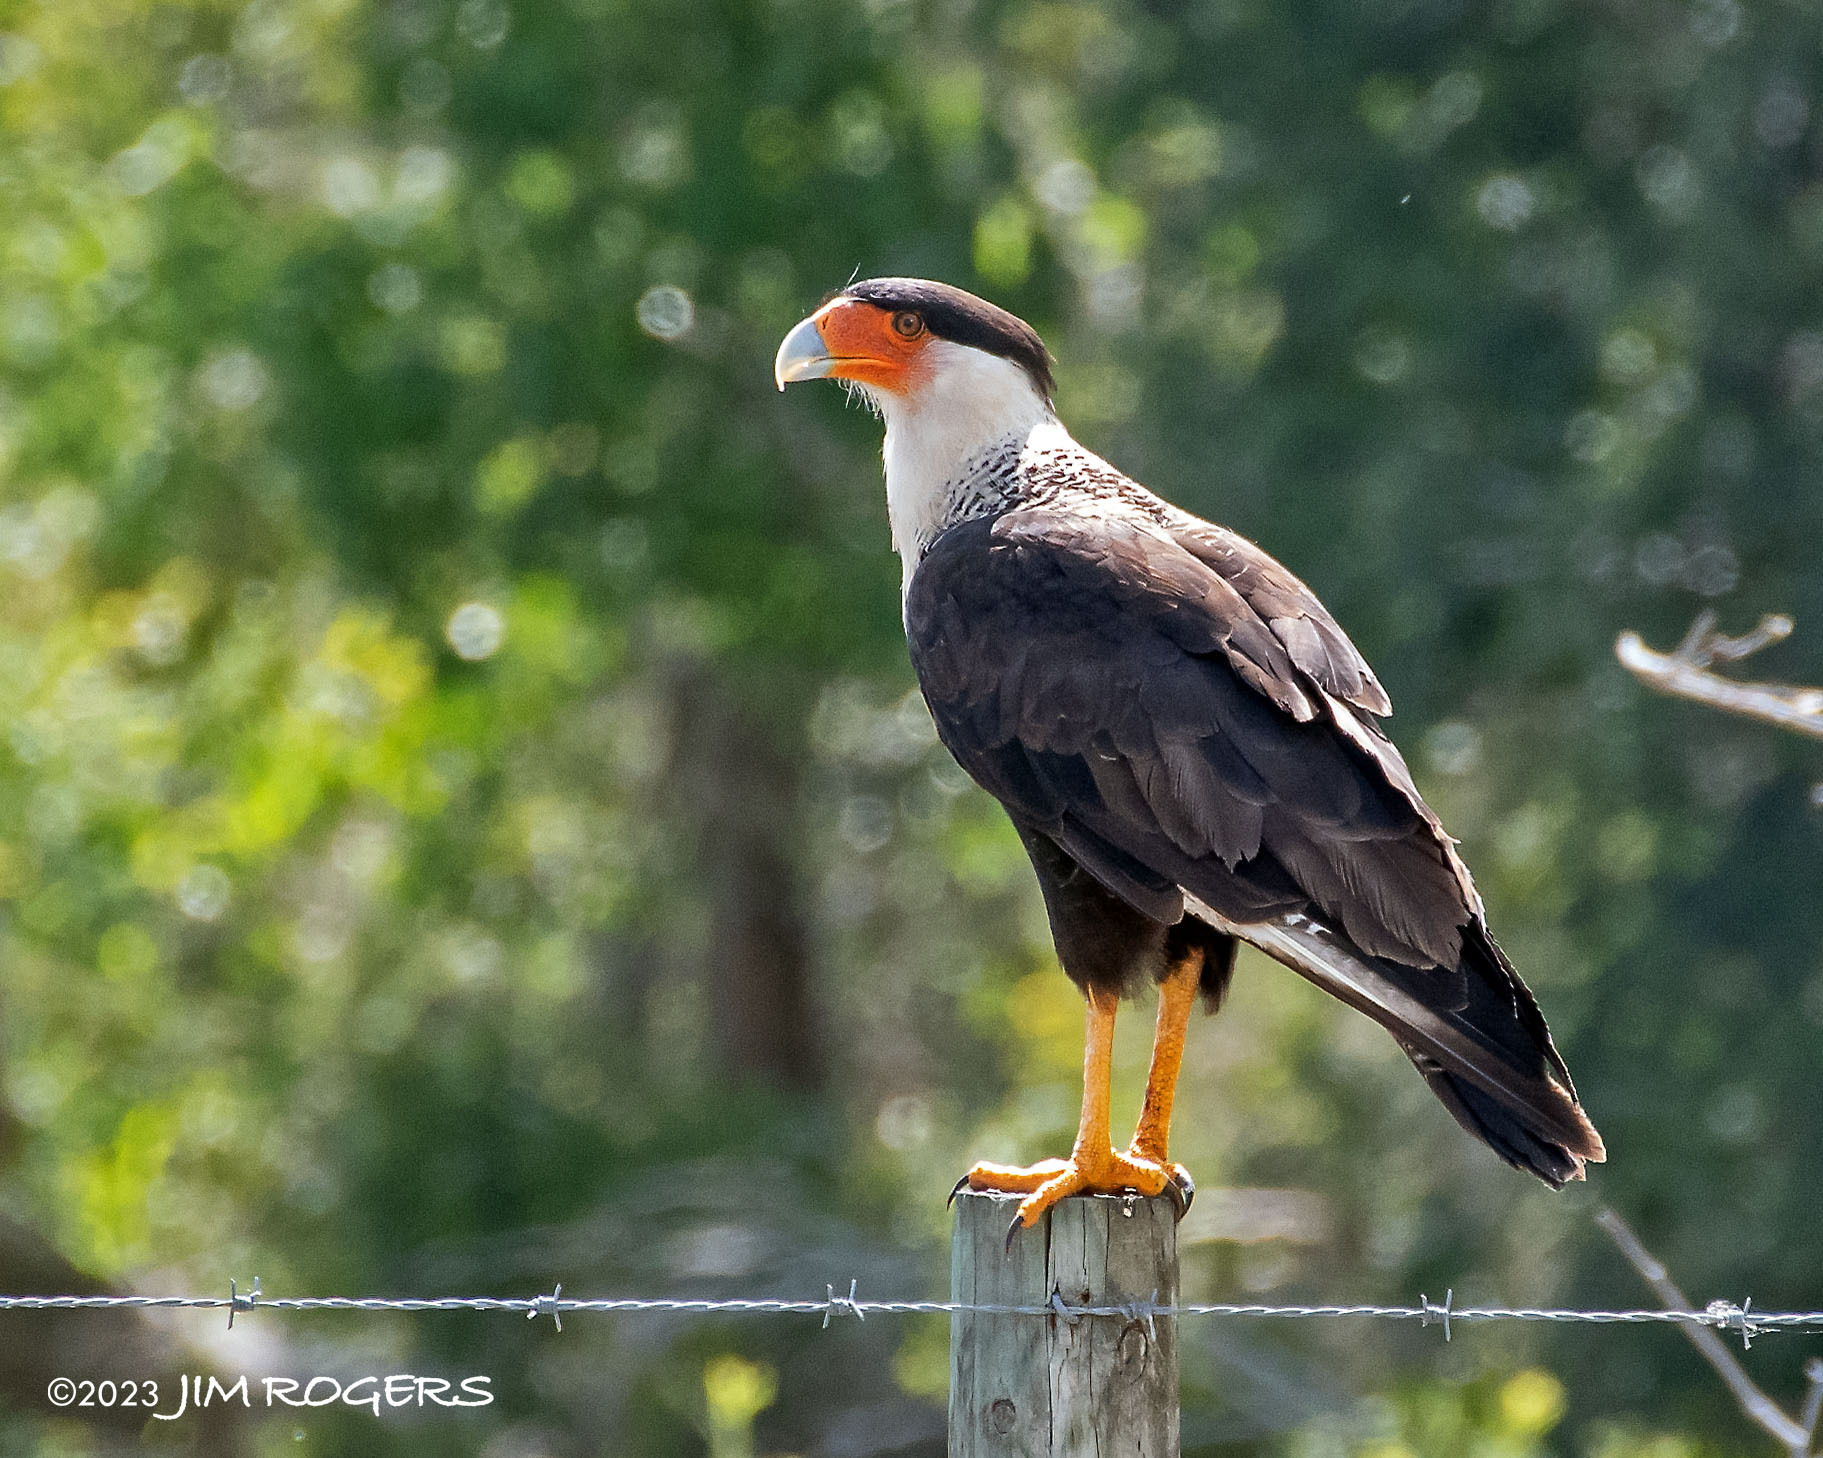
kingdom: Animalia
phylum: Chordata
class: Aves
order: Falconiformes
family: Falconidae
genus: Caracara
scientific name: Caracara plancus
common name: Southern caracara
